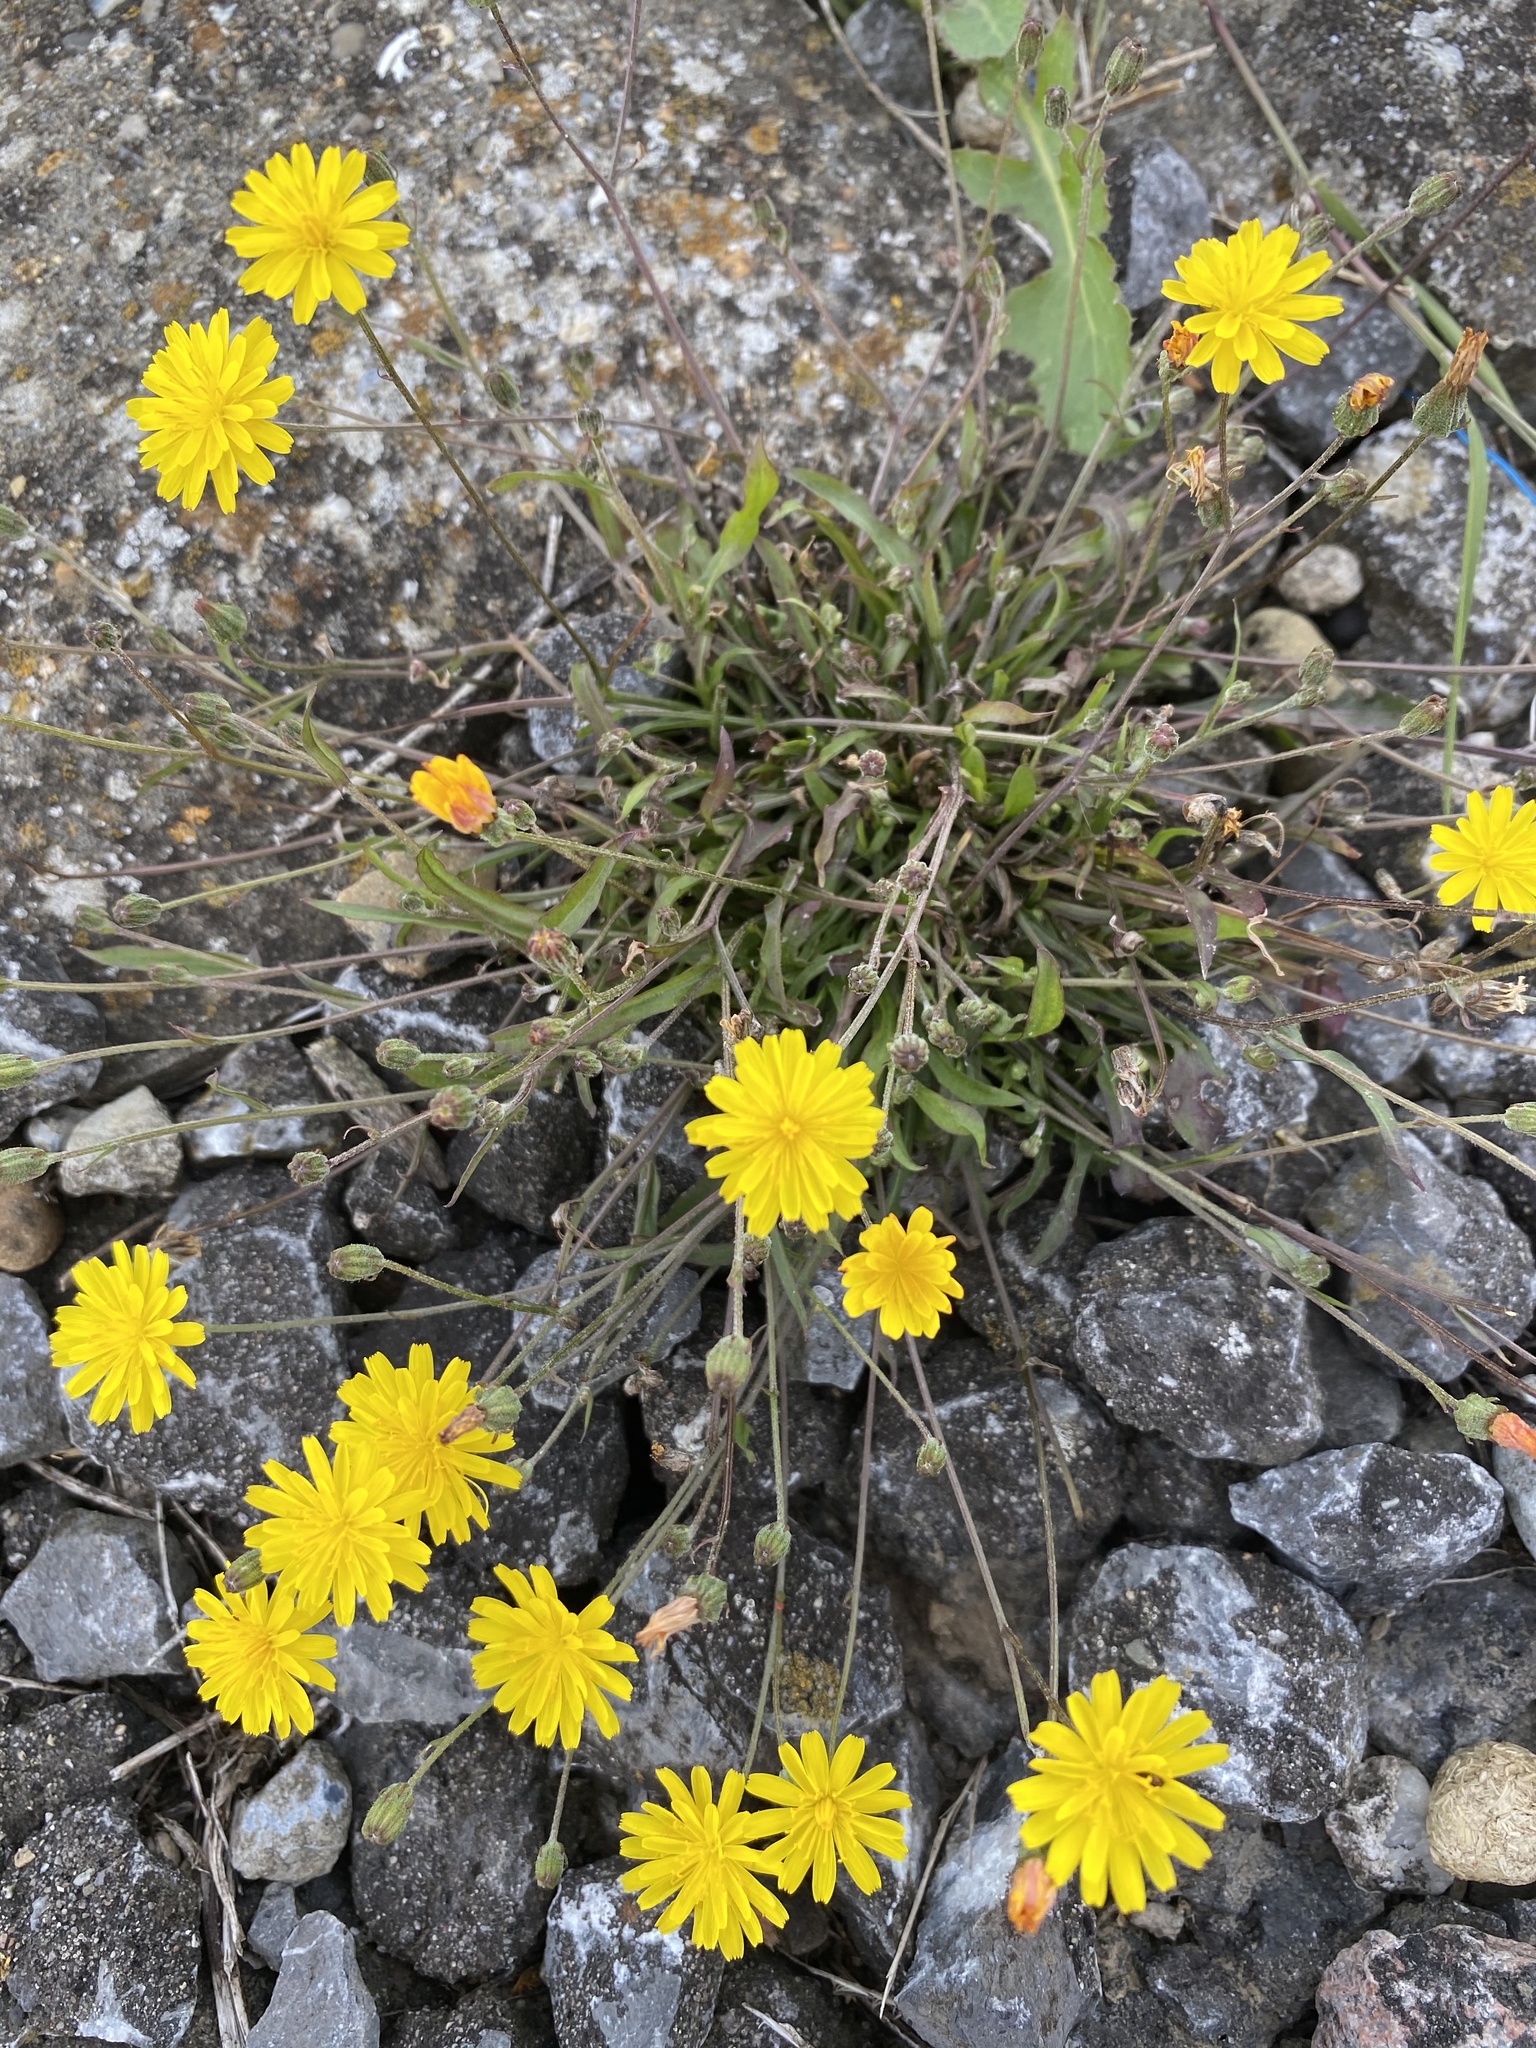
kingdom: Plantae
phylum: Tracheophyta
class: Magnoliopsida
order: Asterales
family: Asteraceae
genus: Crepis
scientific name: Crepis capillaris
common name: Smooth hawksbeard
